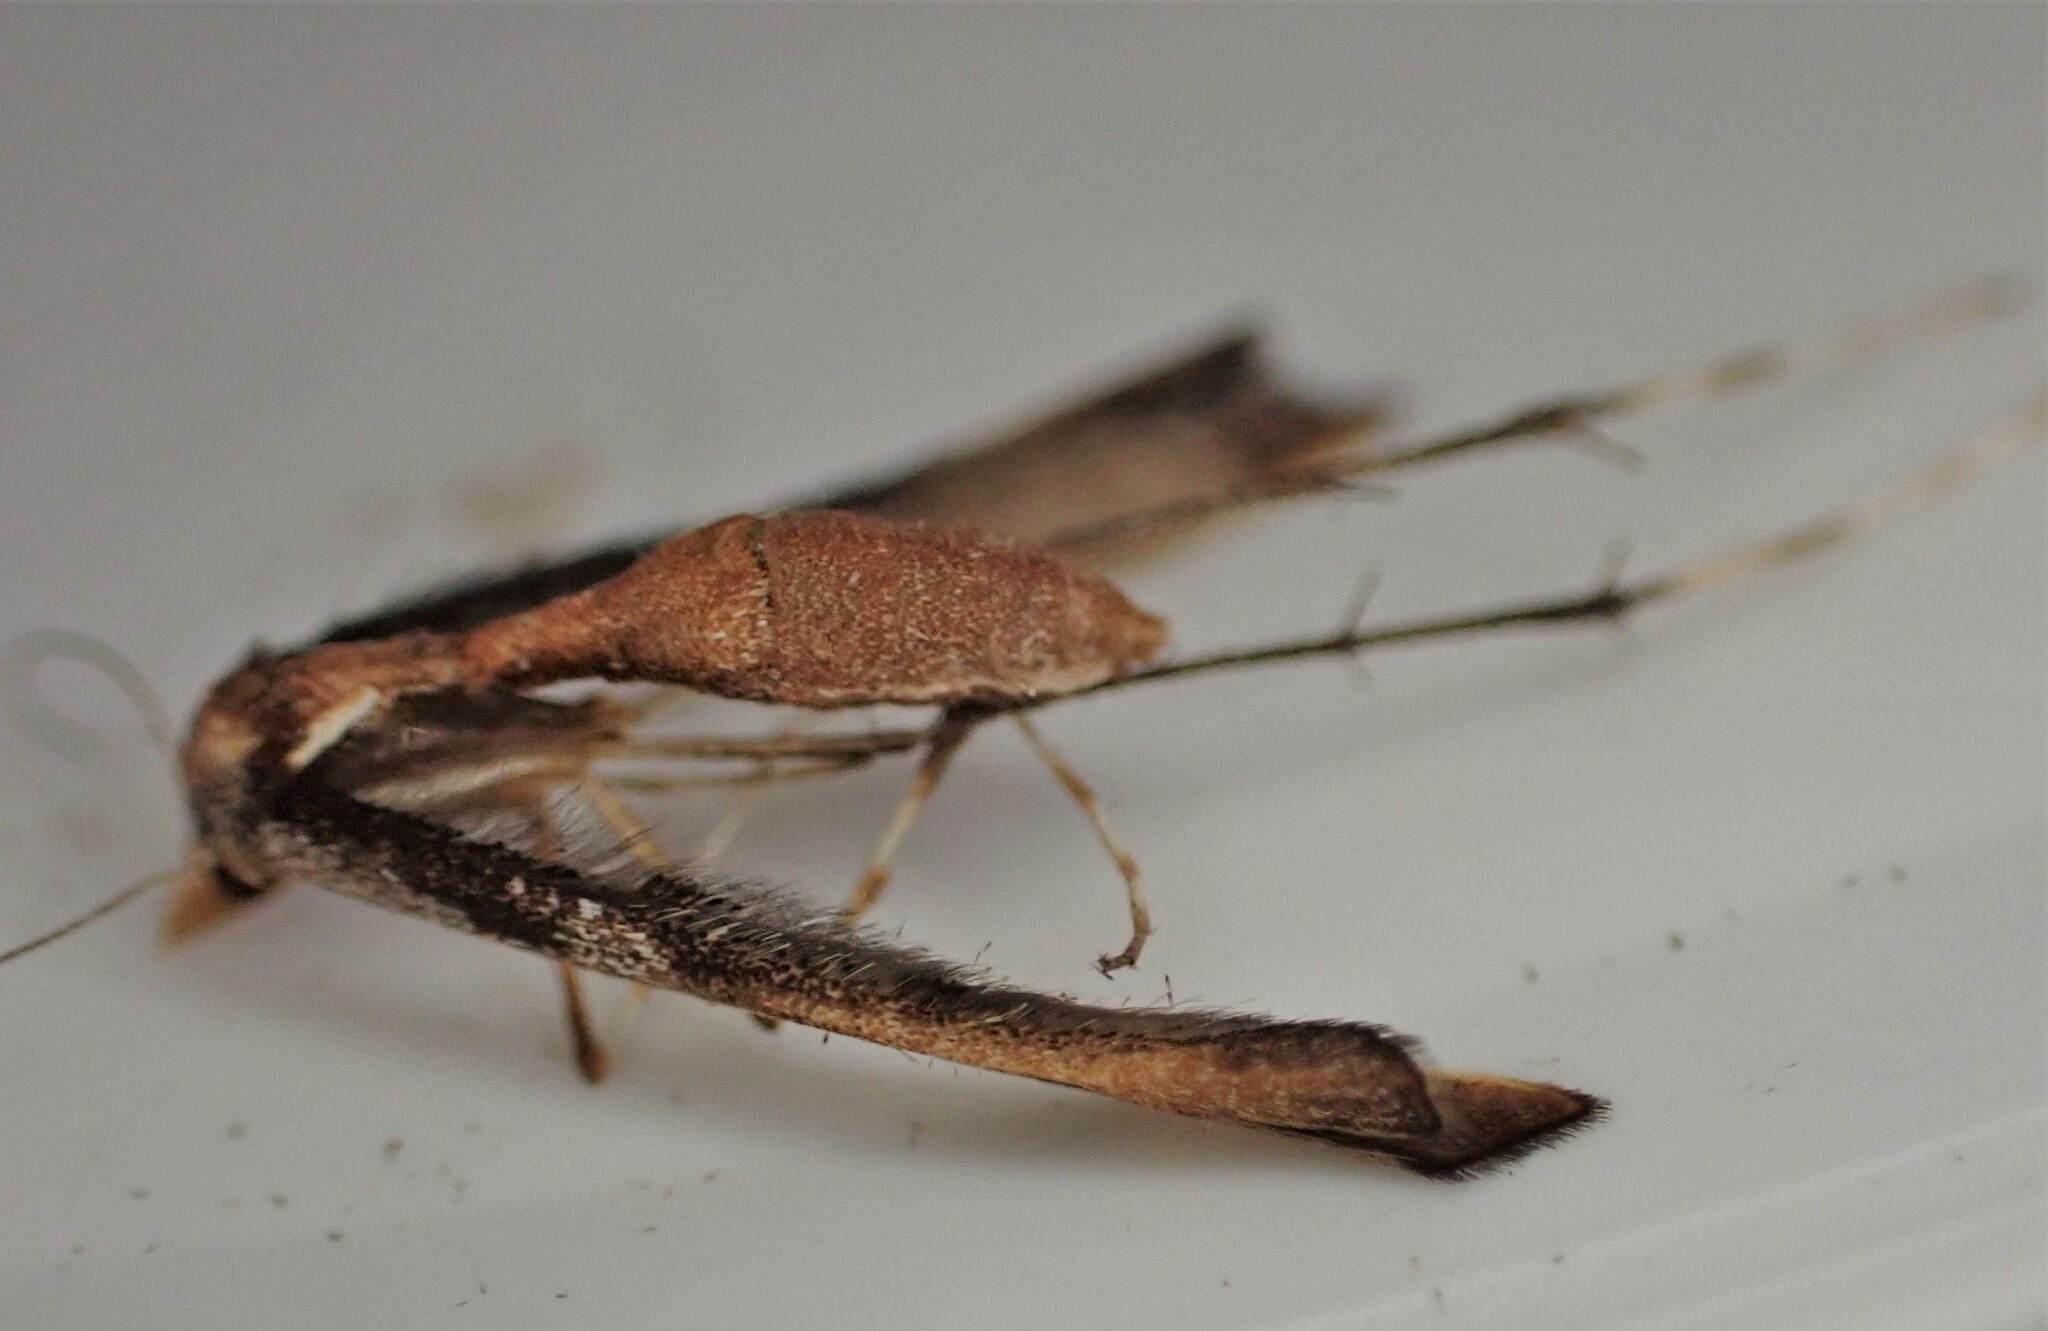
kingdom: Animalia
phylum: Arthropoda
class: Insecta
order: Lepidoptera
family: Pterophoridae
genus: Amblyptilia
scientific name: Amblyptilia falcatalis
